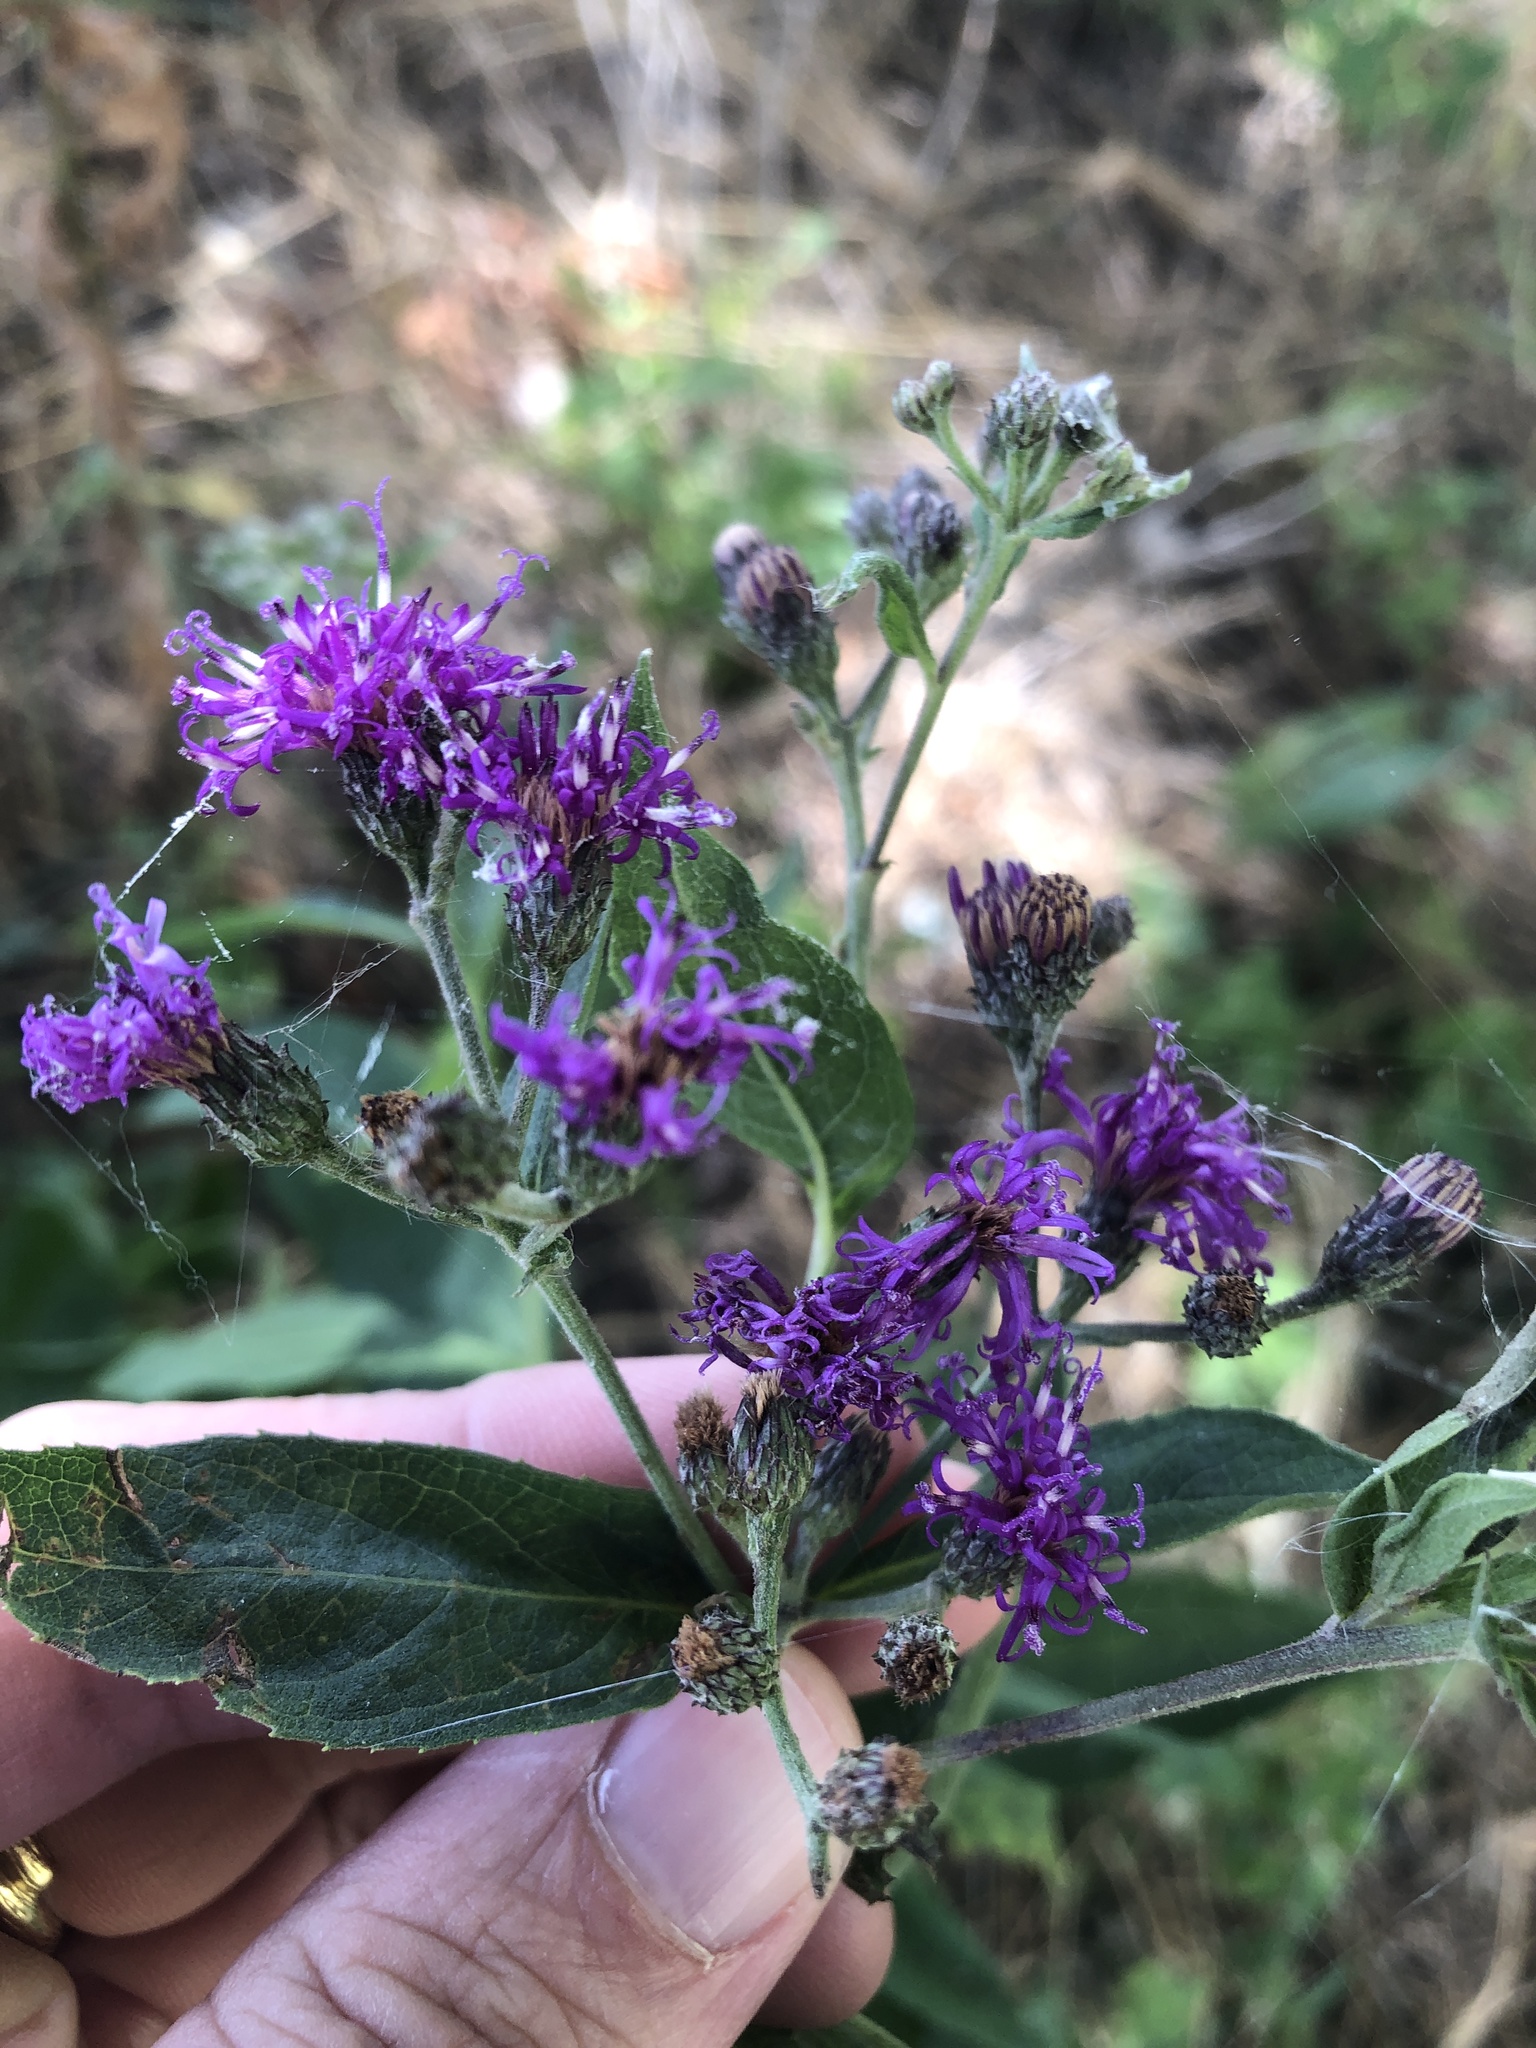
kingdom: Plantae
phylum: Tracheophyta
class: Magnoliopsida
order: Asterales
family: Asteraceae
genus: Vernonia
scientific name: Vernonia baldwinii
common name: Western ironweed
